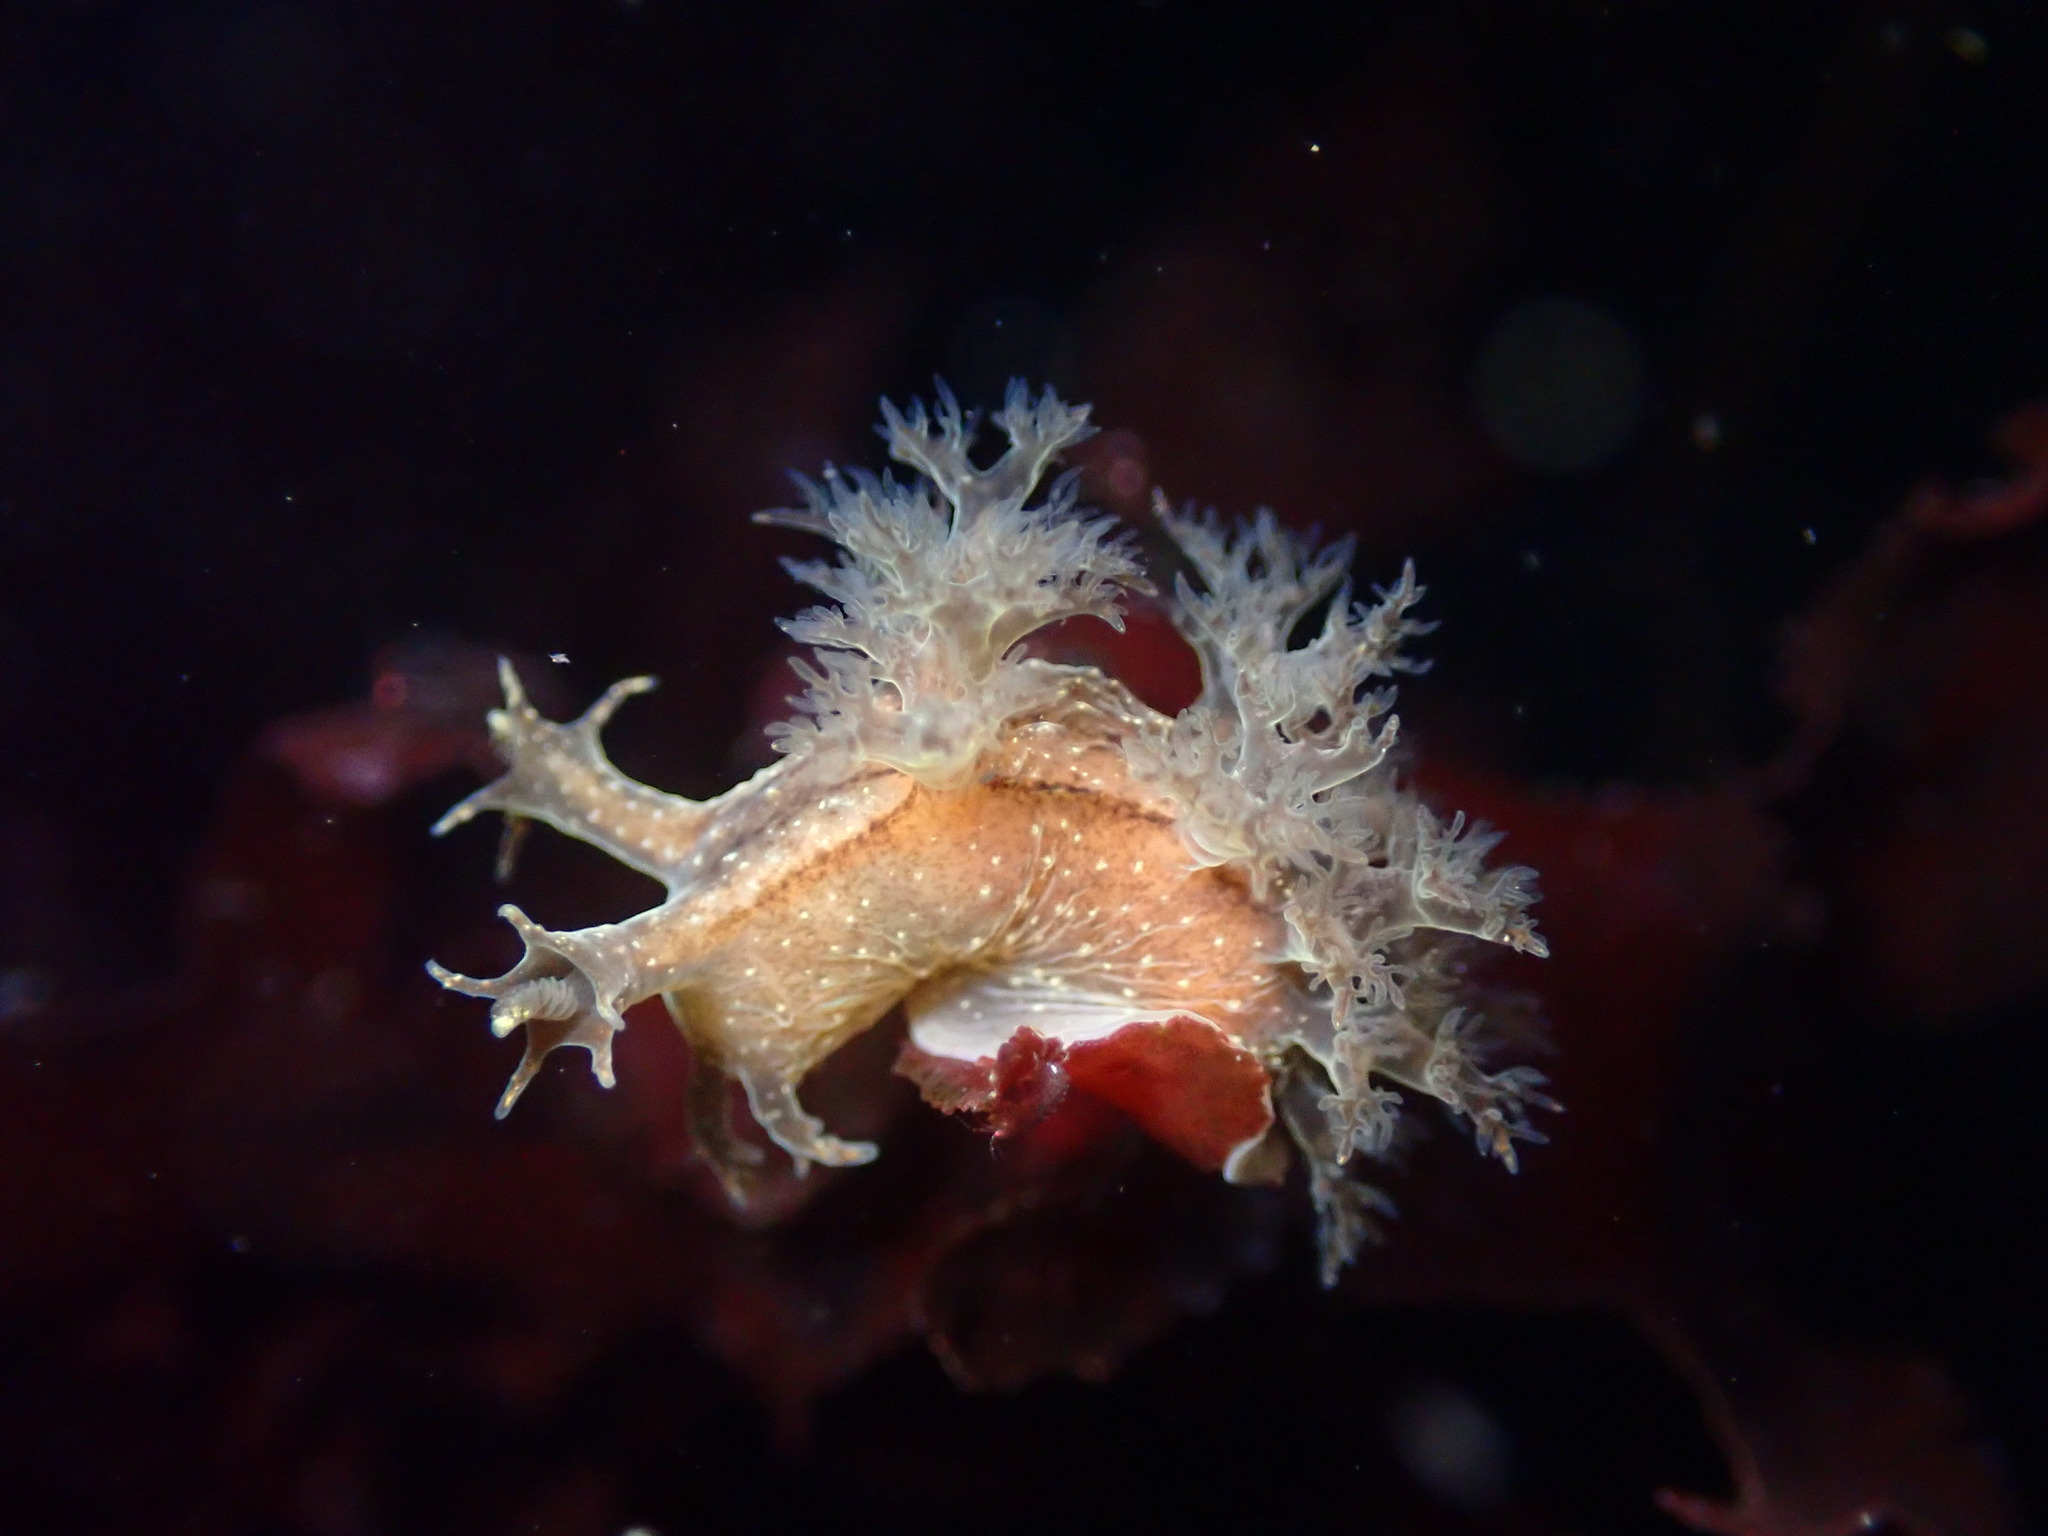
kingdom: Animalia
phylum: Mollusca
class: Gastropoda
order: Nudibranchia
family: Dendronotidae
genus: Dendronotus
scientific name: Dendronotus subramosus
